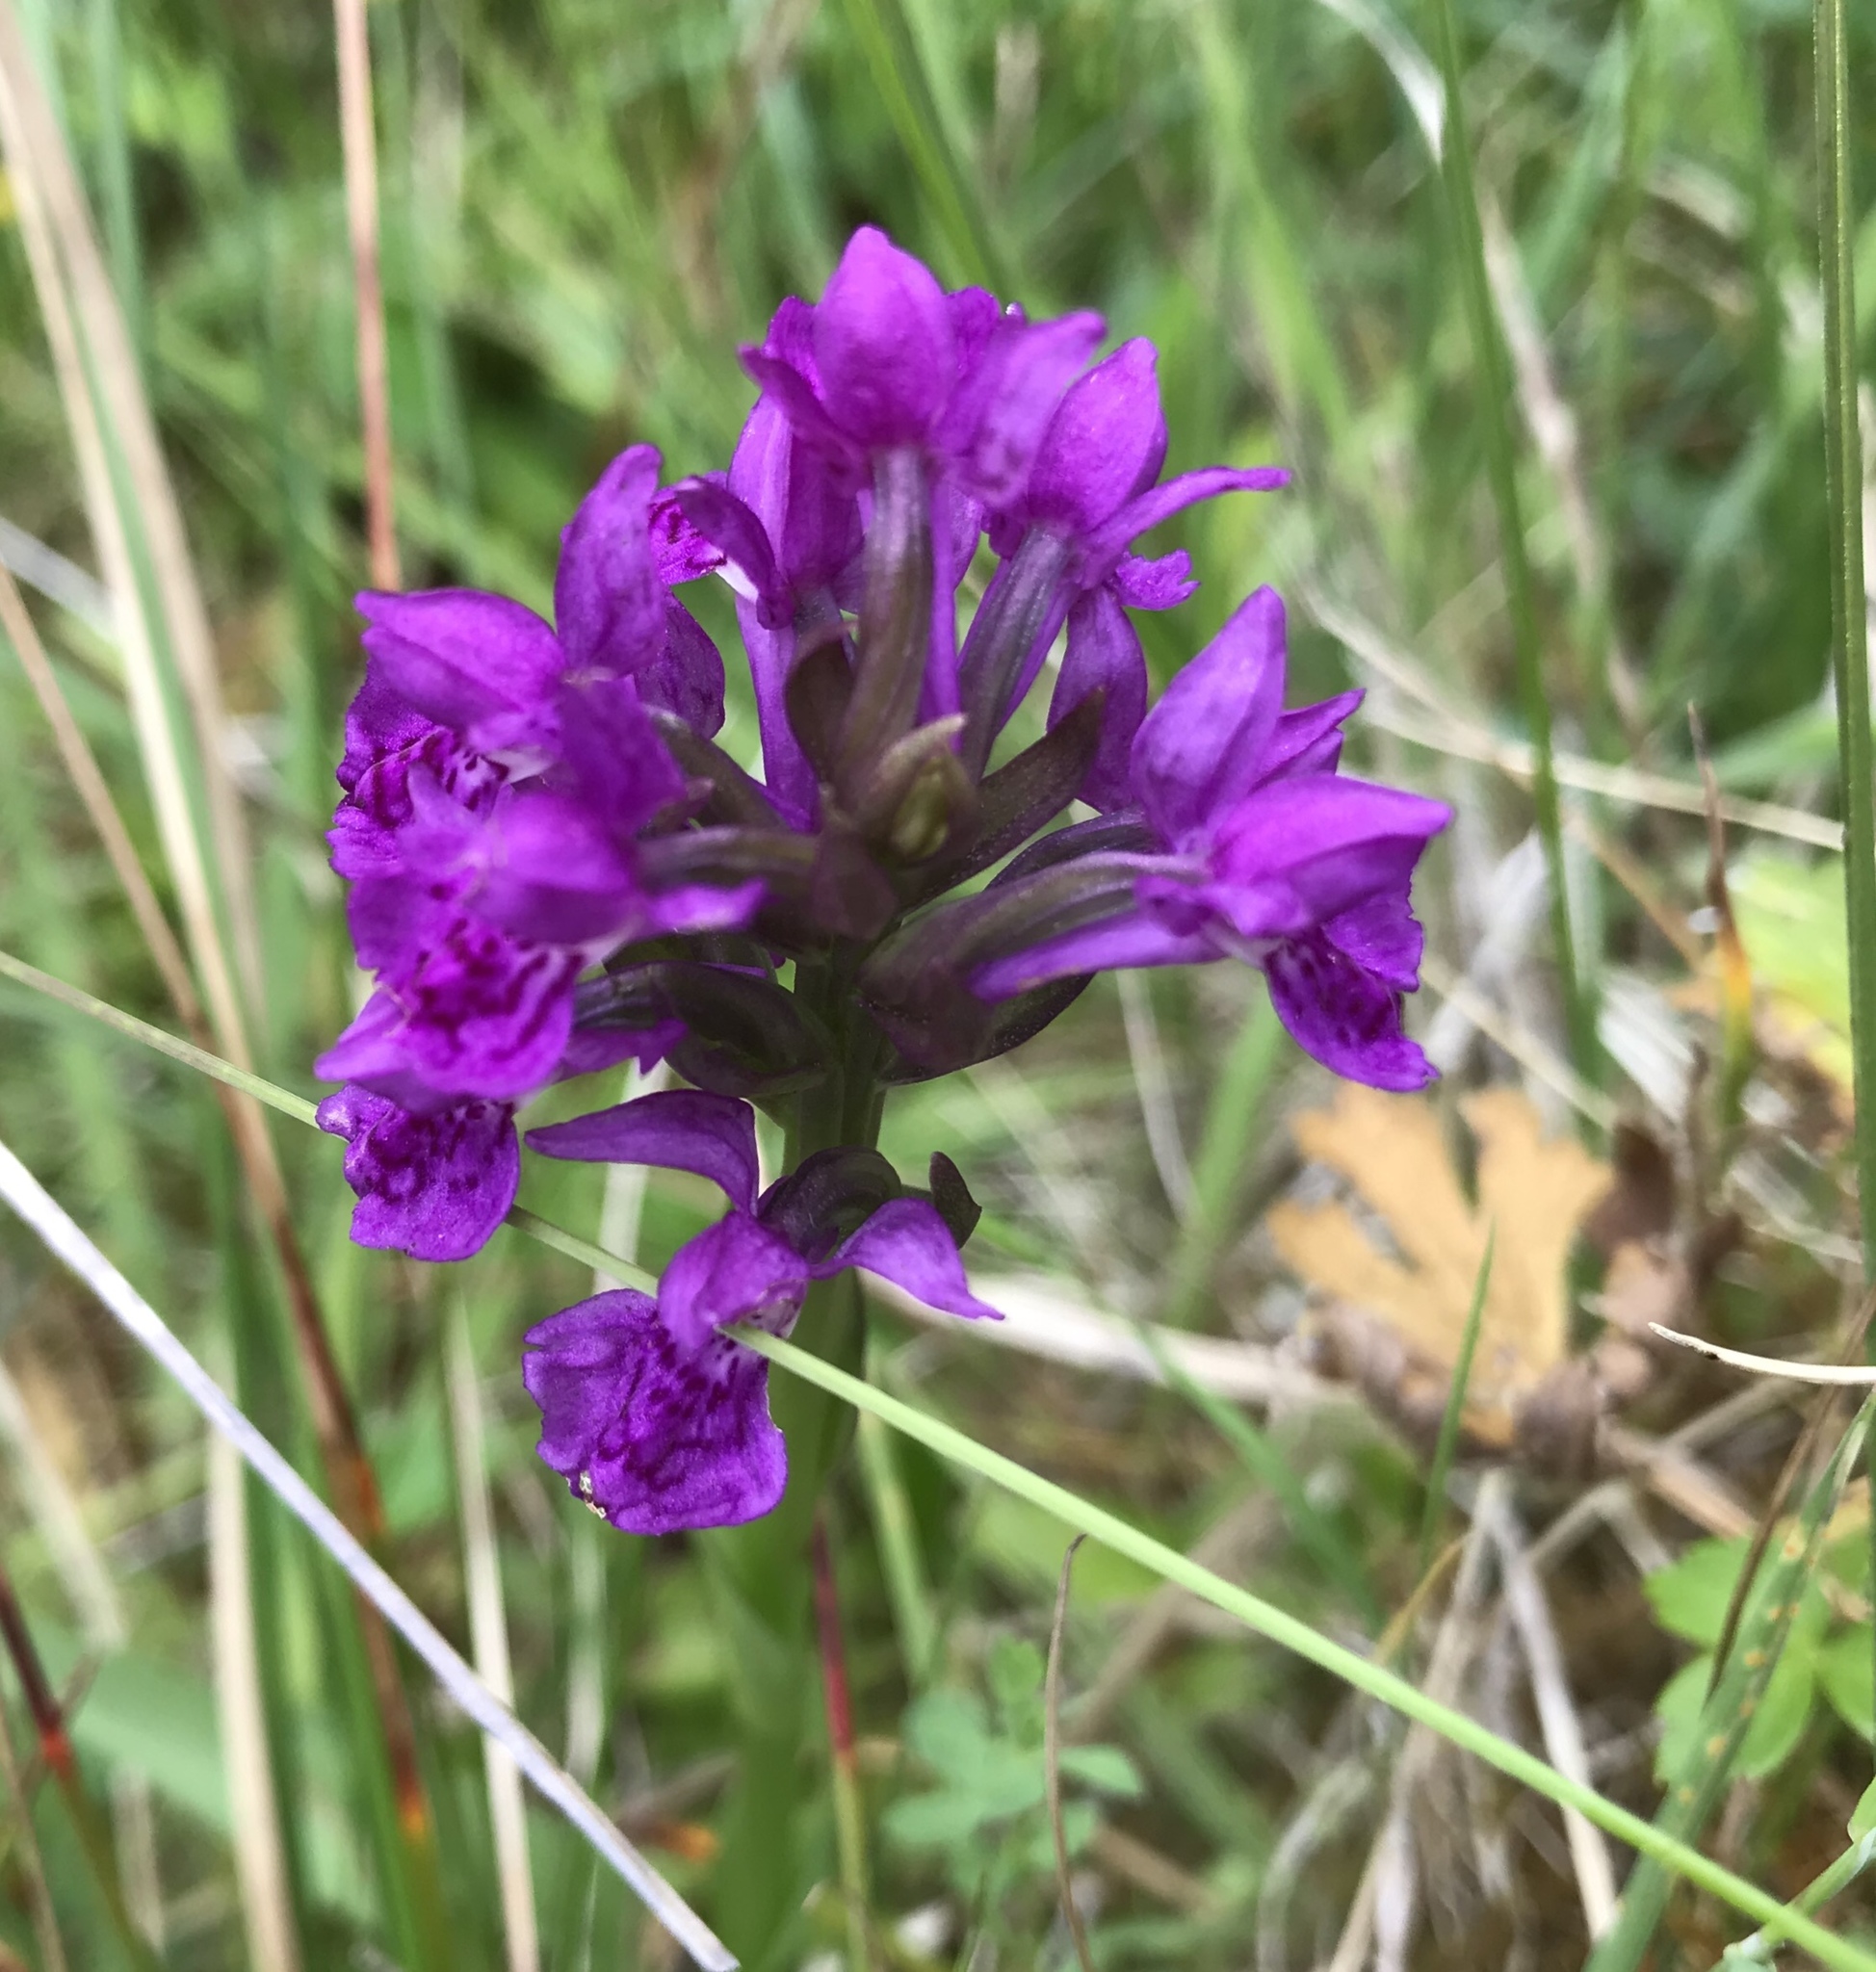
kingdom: Plantae
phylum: Tracheophyta
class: Liliopsida
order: Asparagales
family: Orchidaceae
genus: Dactylorhiza
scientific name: Dactylorhiza majalis
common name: Marsh orchid
